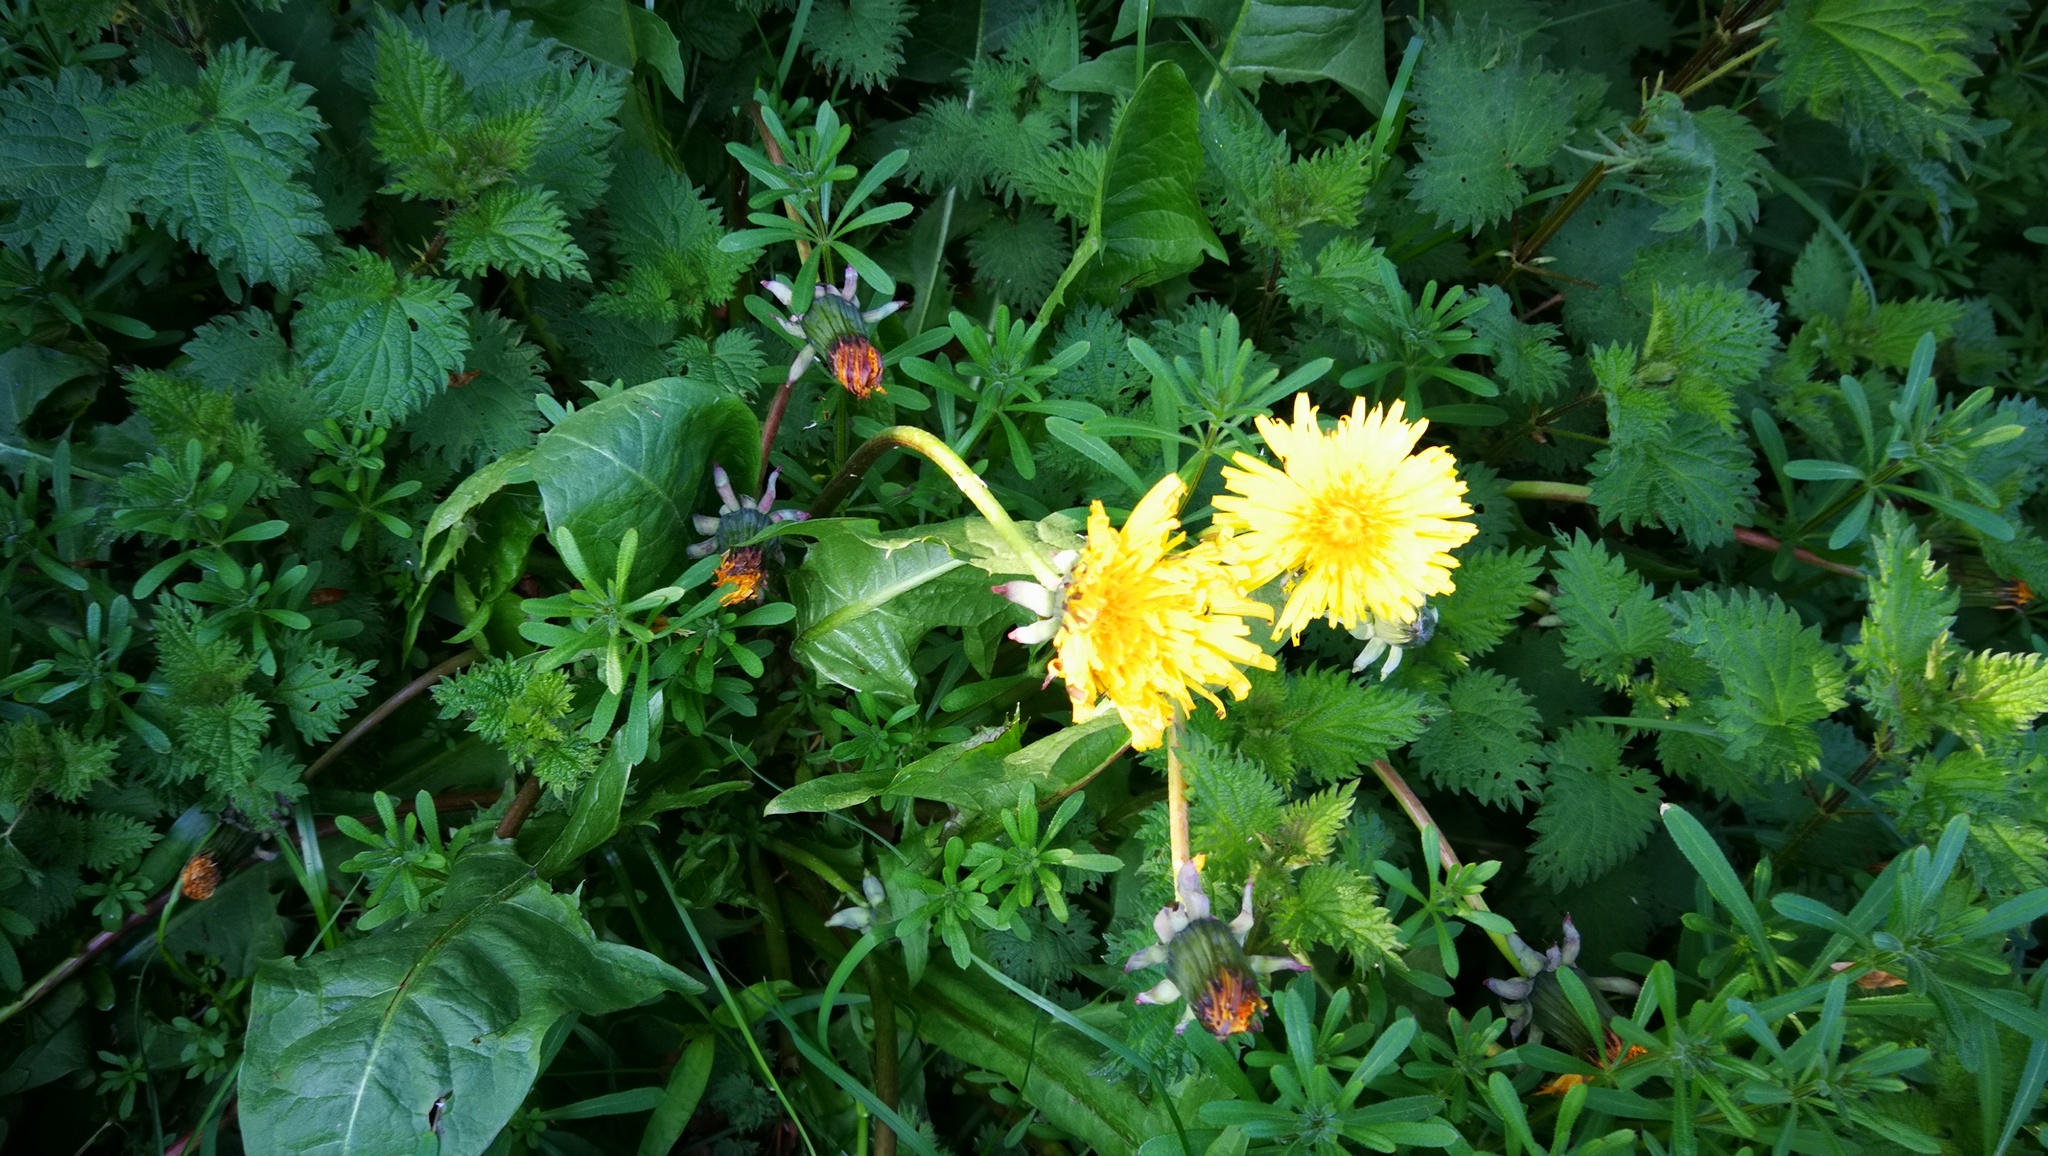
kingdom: Plantae
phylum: Tracheophyta
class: Magnoliopsida
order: Asterales
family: Asteraceae
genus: Taraxacum
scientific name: Taraxacum officinale
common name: Common dandelion
